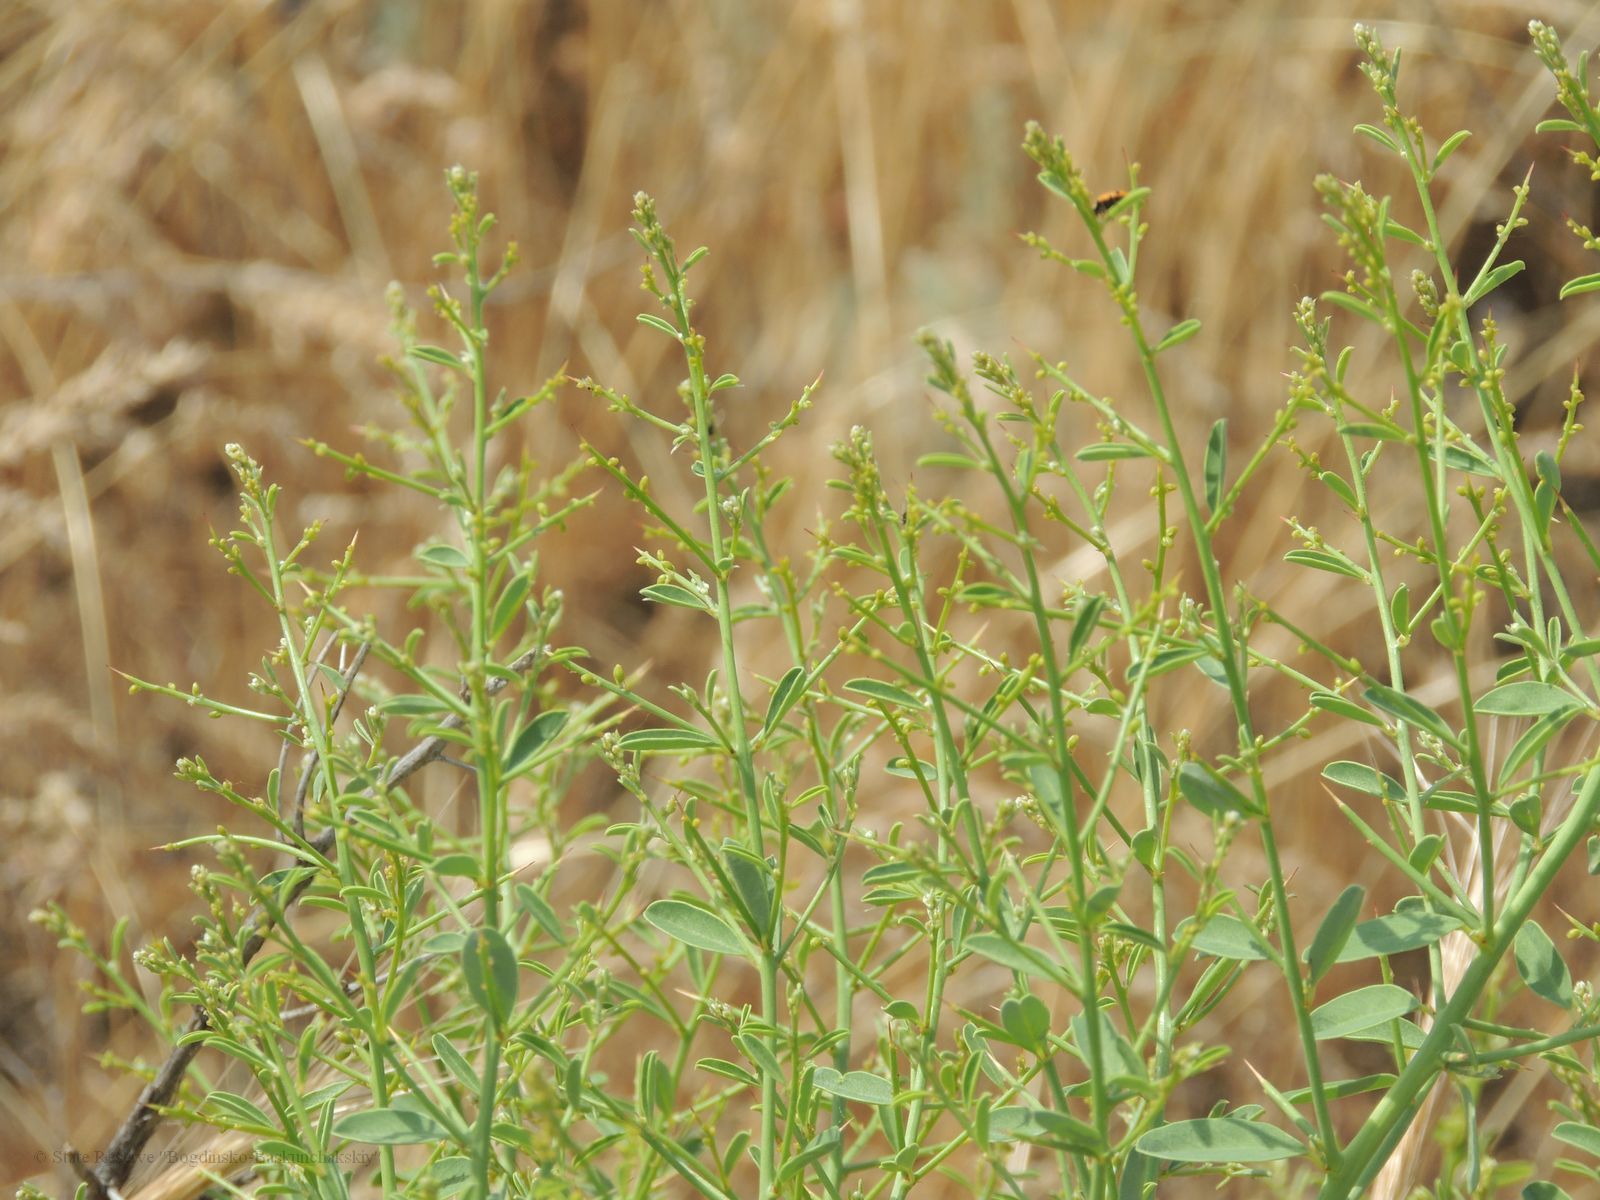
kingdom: Plantae
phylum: Tracheophyta
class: Magnoliopsida
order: Fabales
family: Fabaceae
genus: Alhagi
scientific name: Alhagi pseudalhagi
